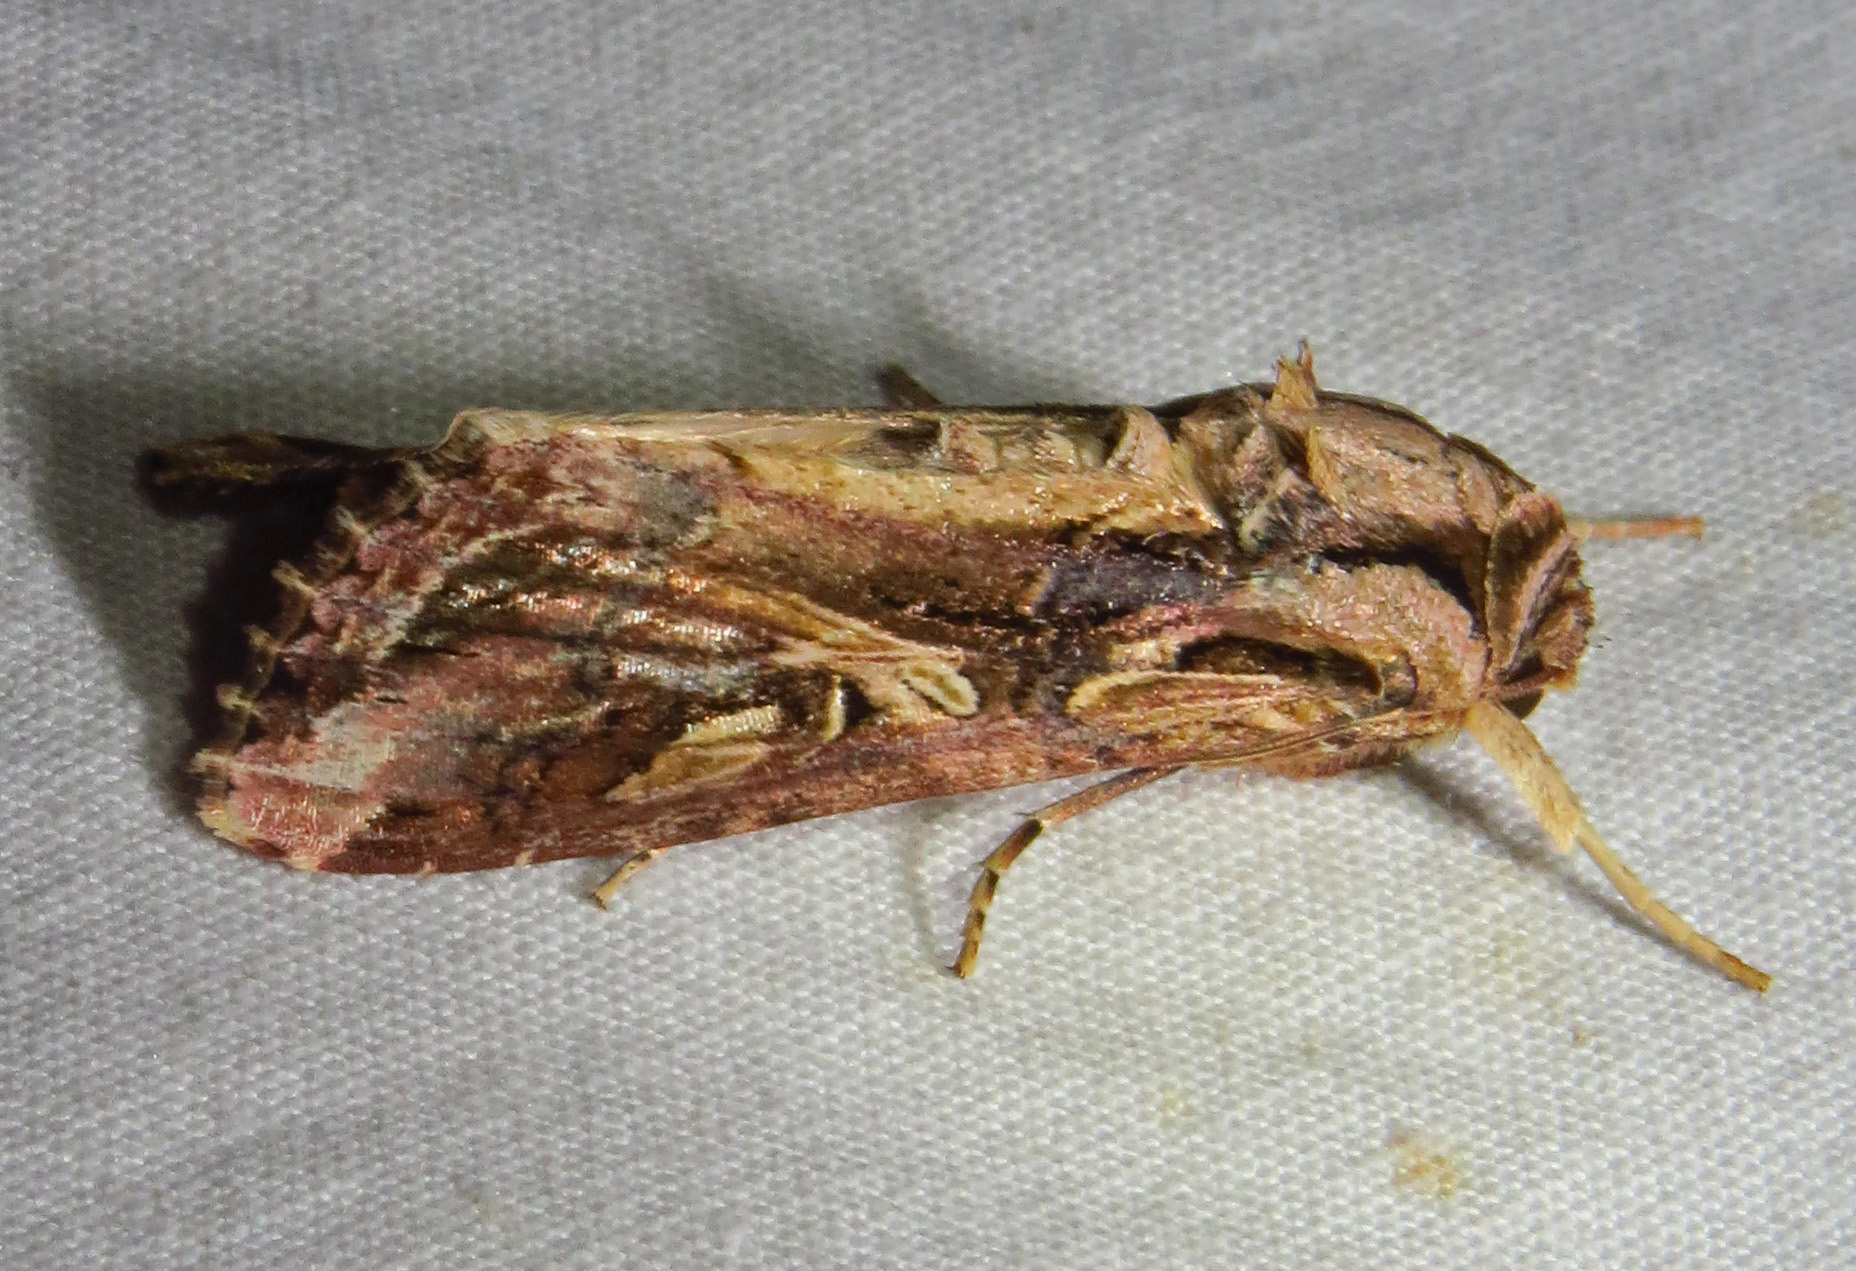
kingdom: Animalia
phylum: Arthropoda
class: Insecta
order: Lepidoptera
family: Noctuidae
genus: Spodoptera
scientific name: Spodoptera dolichos
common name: Sweetpotato armyworm
